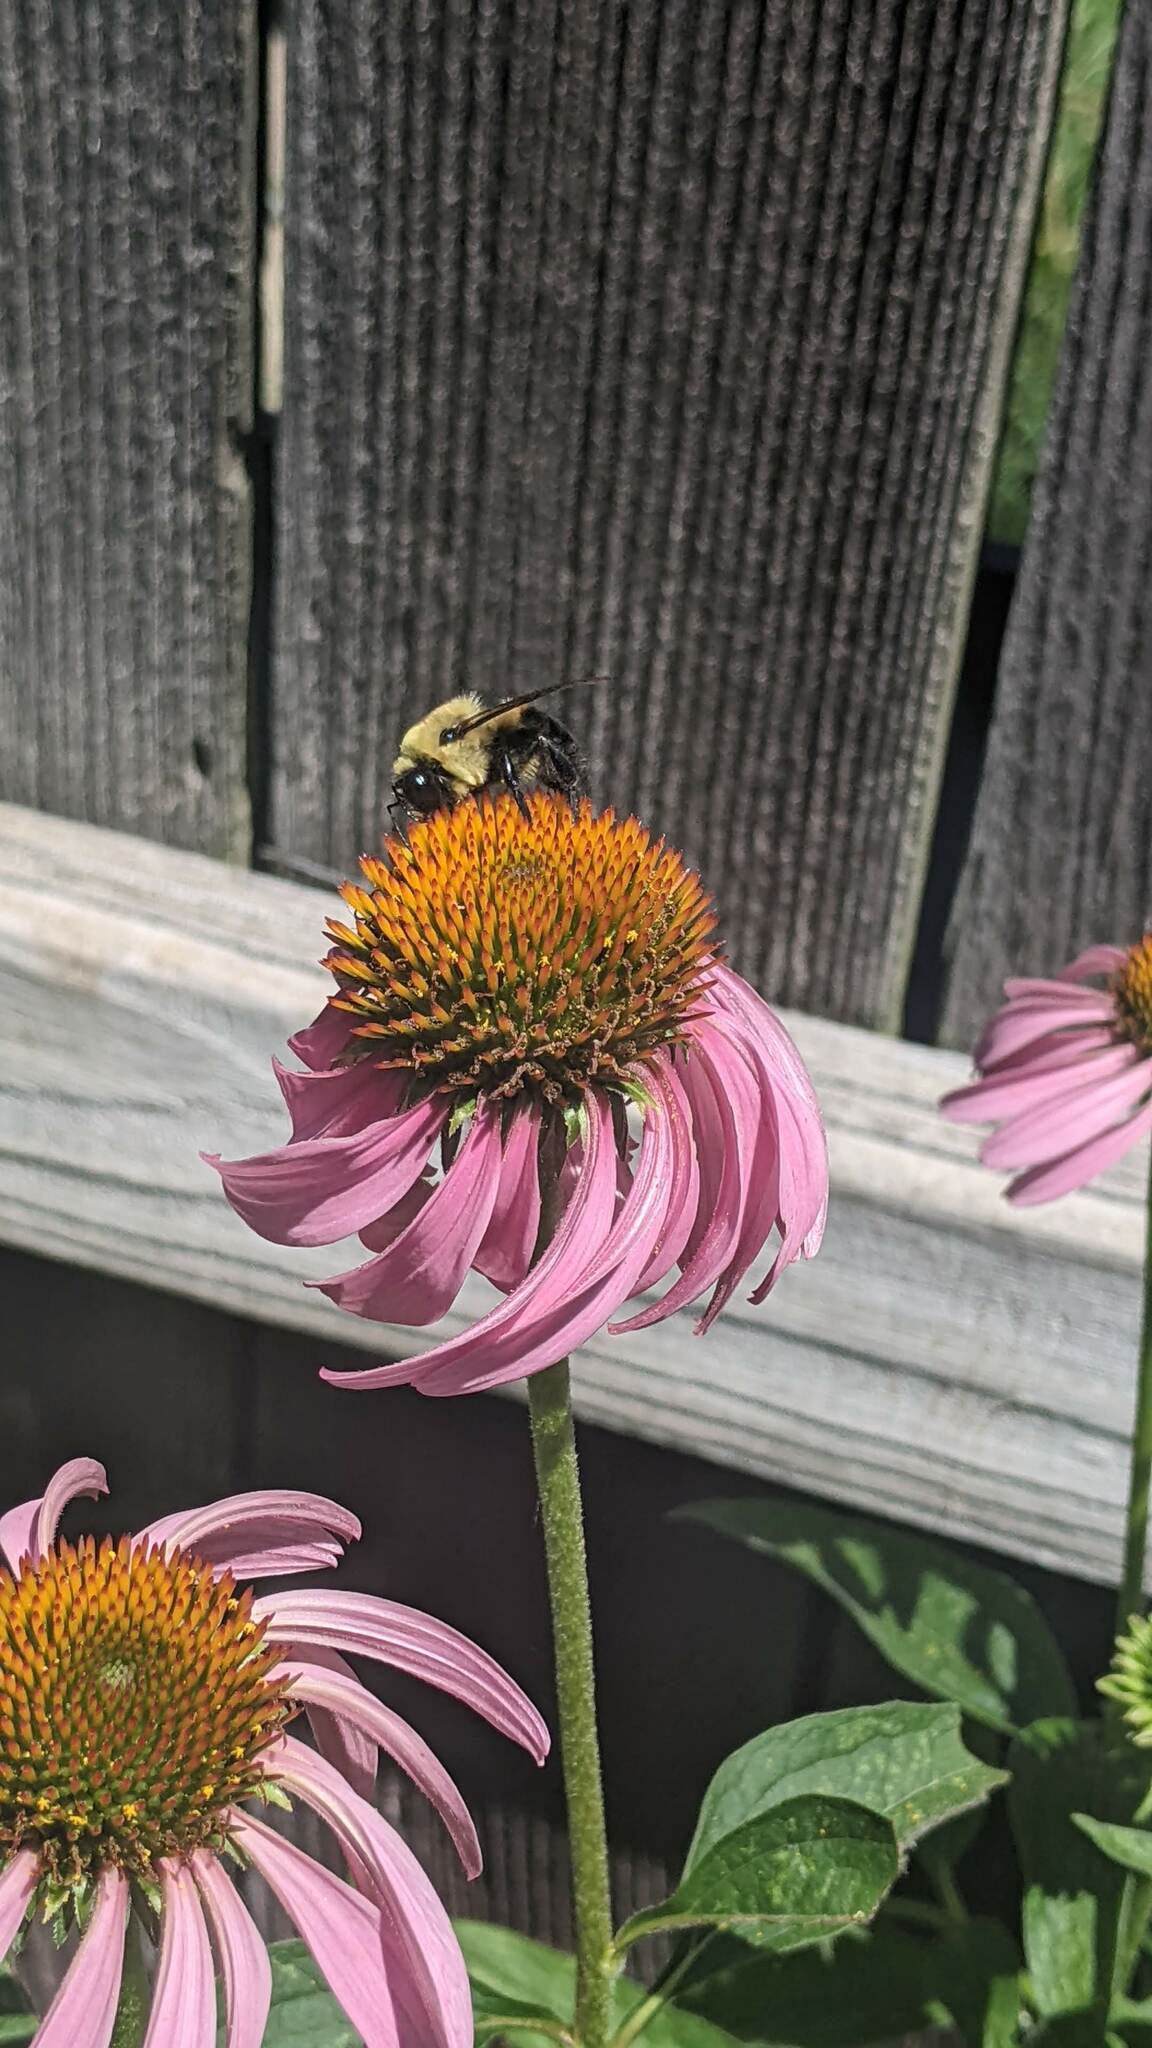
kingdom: Animalia
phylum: Arthropoda
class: Insecta
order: Hymenoptera
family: Apidae
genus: Bombus
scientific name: Bombus griseocollis
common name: Brown-belted bumble bee
